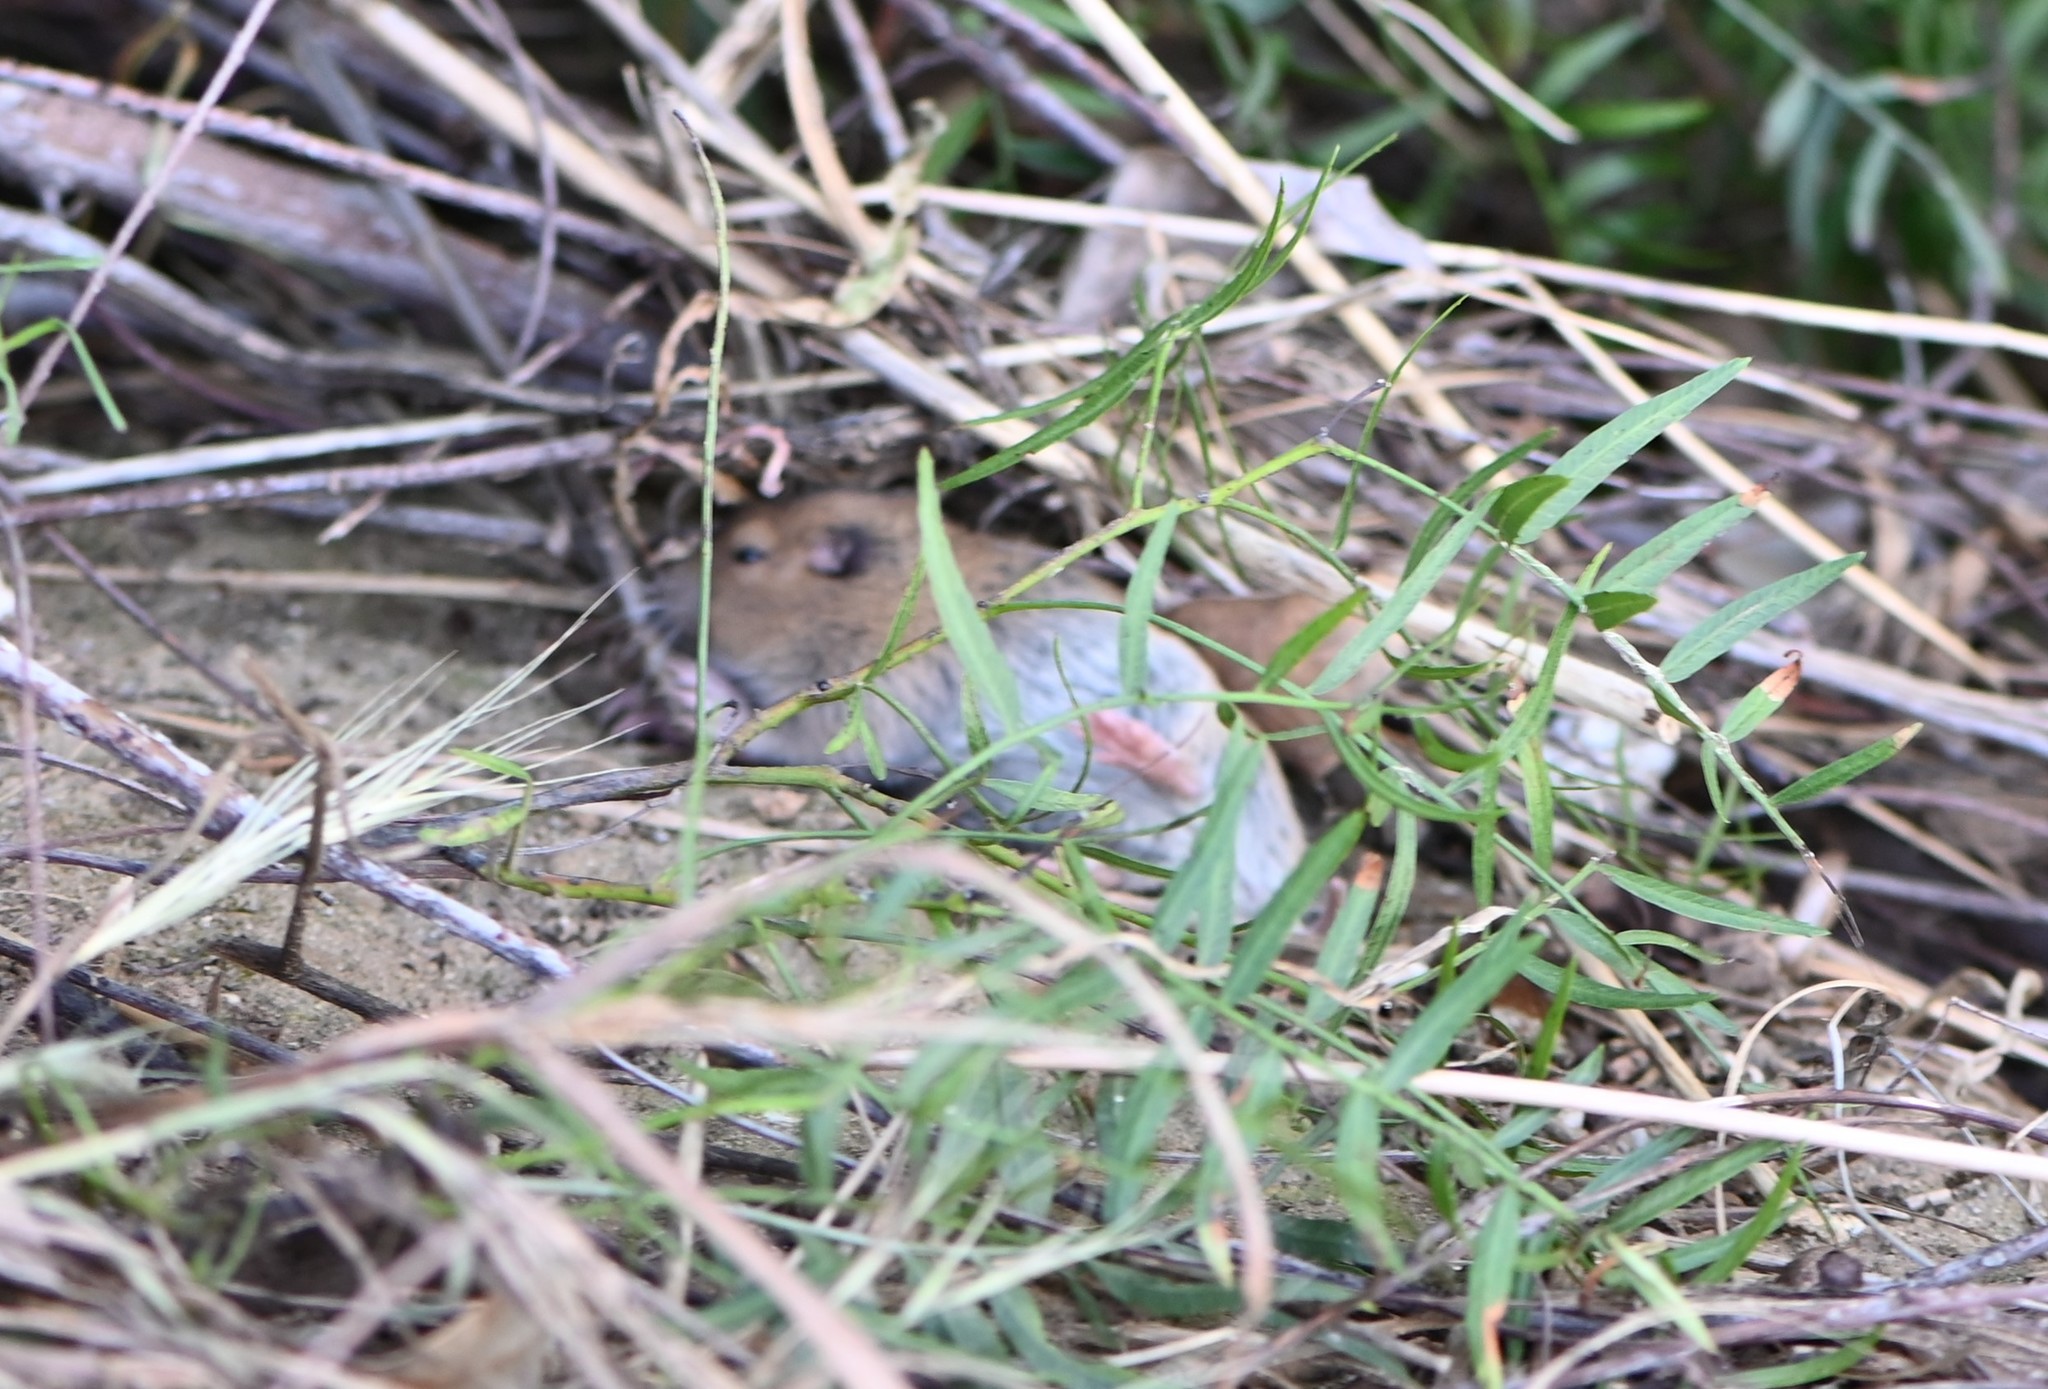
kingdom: Animalia
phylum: Chordata
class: Mammalia
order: Rodentia
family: Geomyidae
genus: Thomomys
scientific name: Thomomys bottae
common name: Botta's pocket gopher
